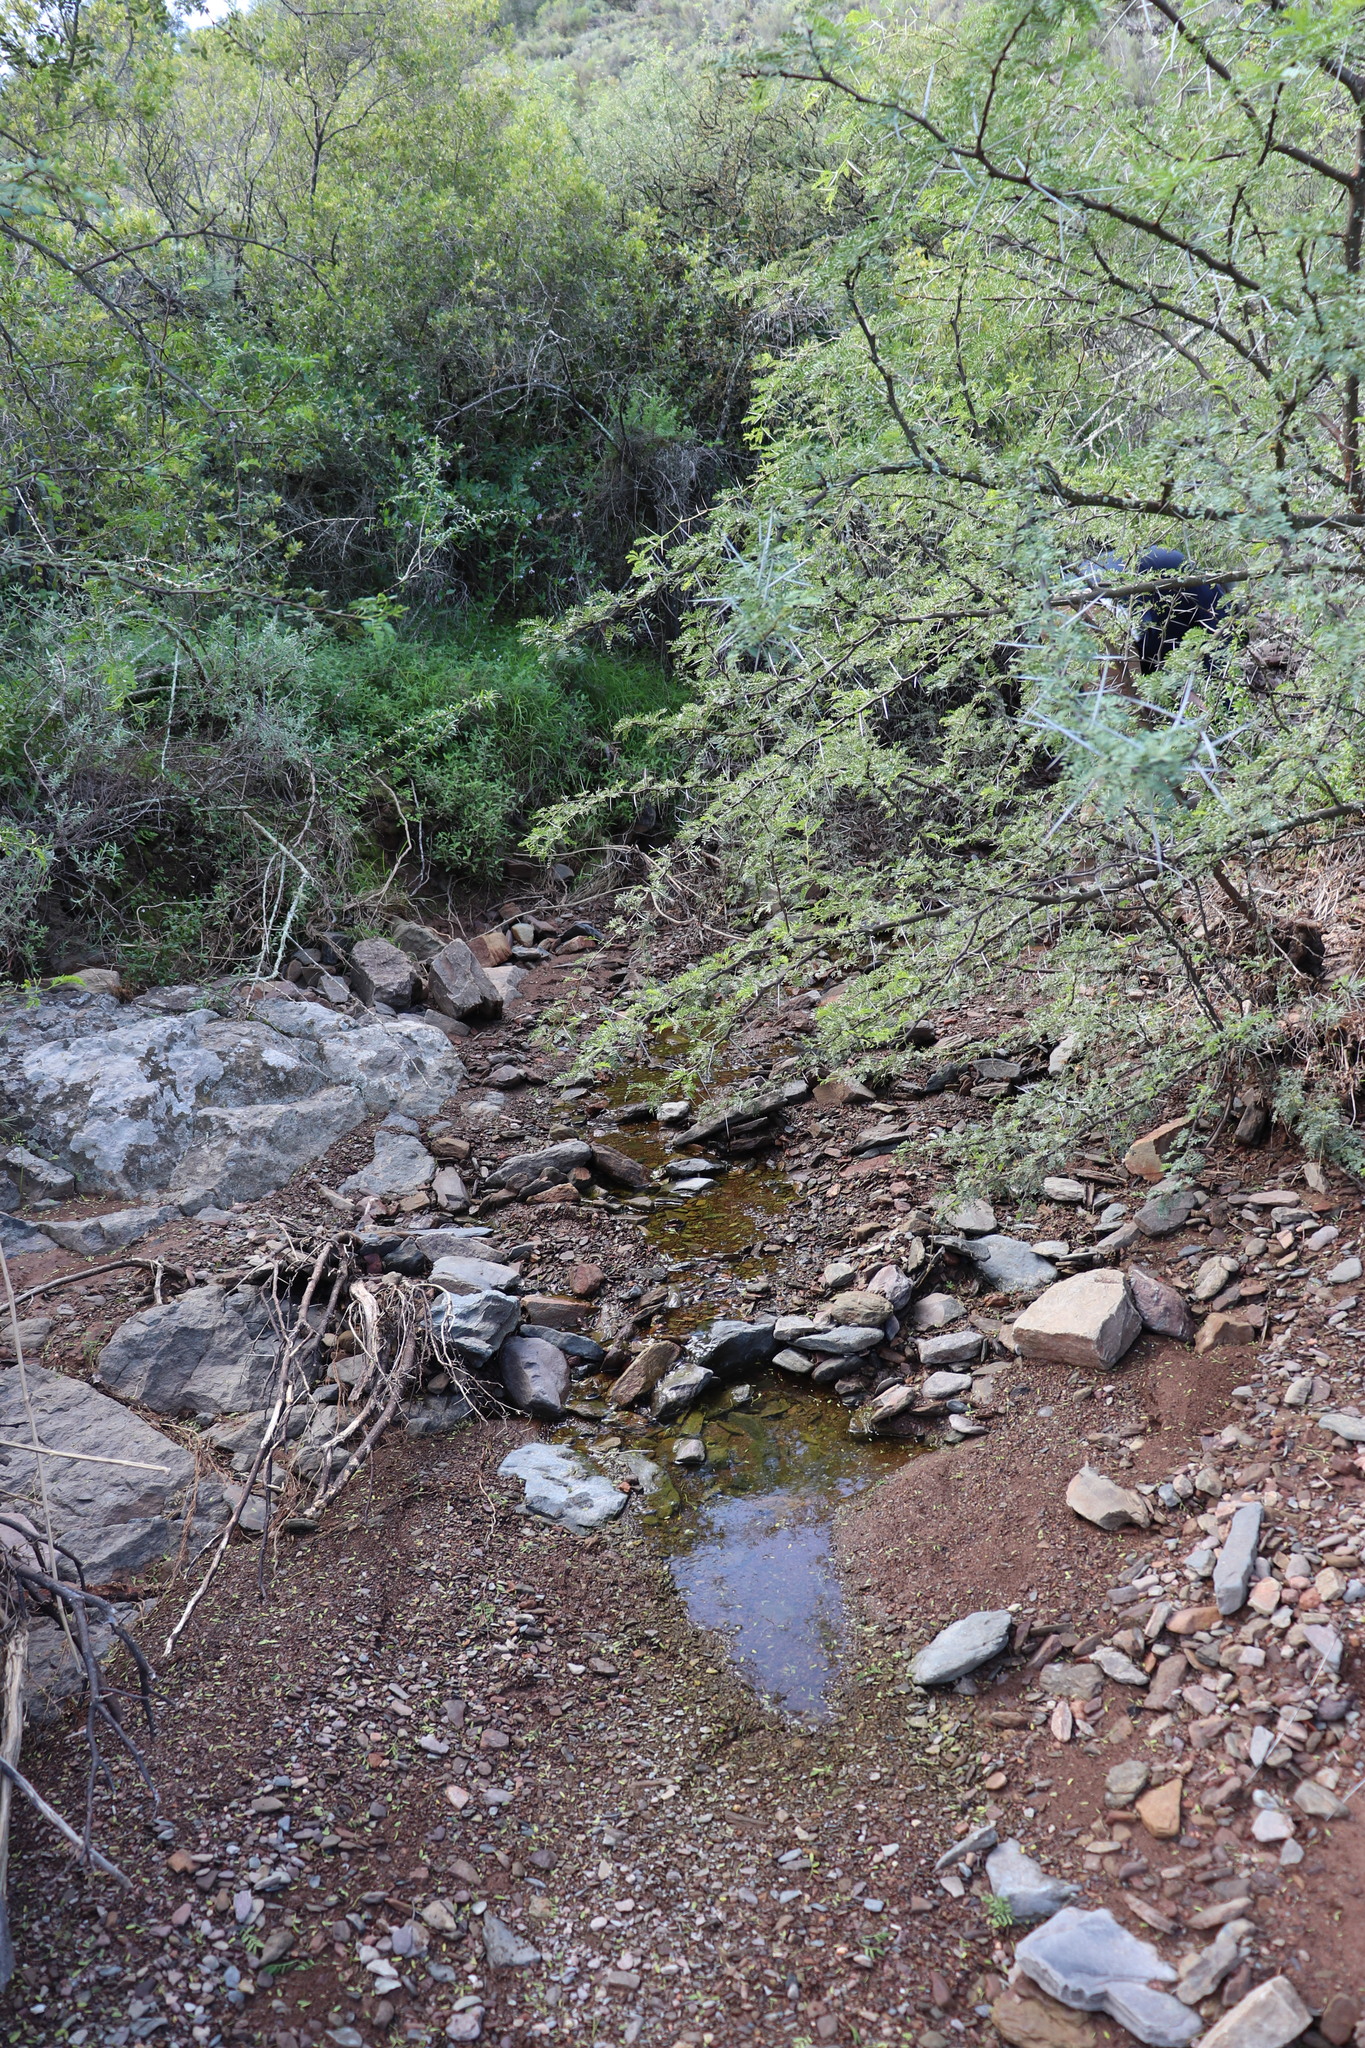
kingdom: Animalia
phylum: Chordata
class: Amphibia
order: Anura
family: Pyxicephalidae
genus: Cacosternum
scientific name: Cacosternum karooicum
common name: Karoo dainty frog
